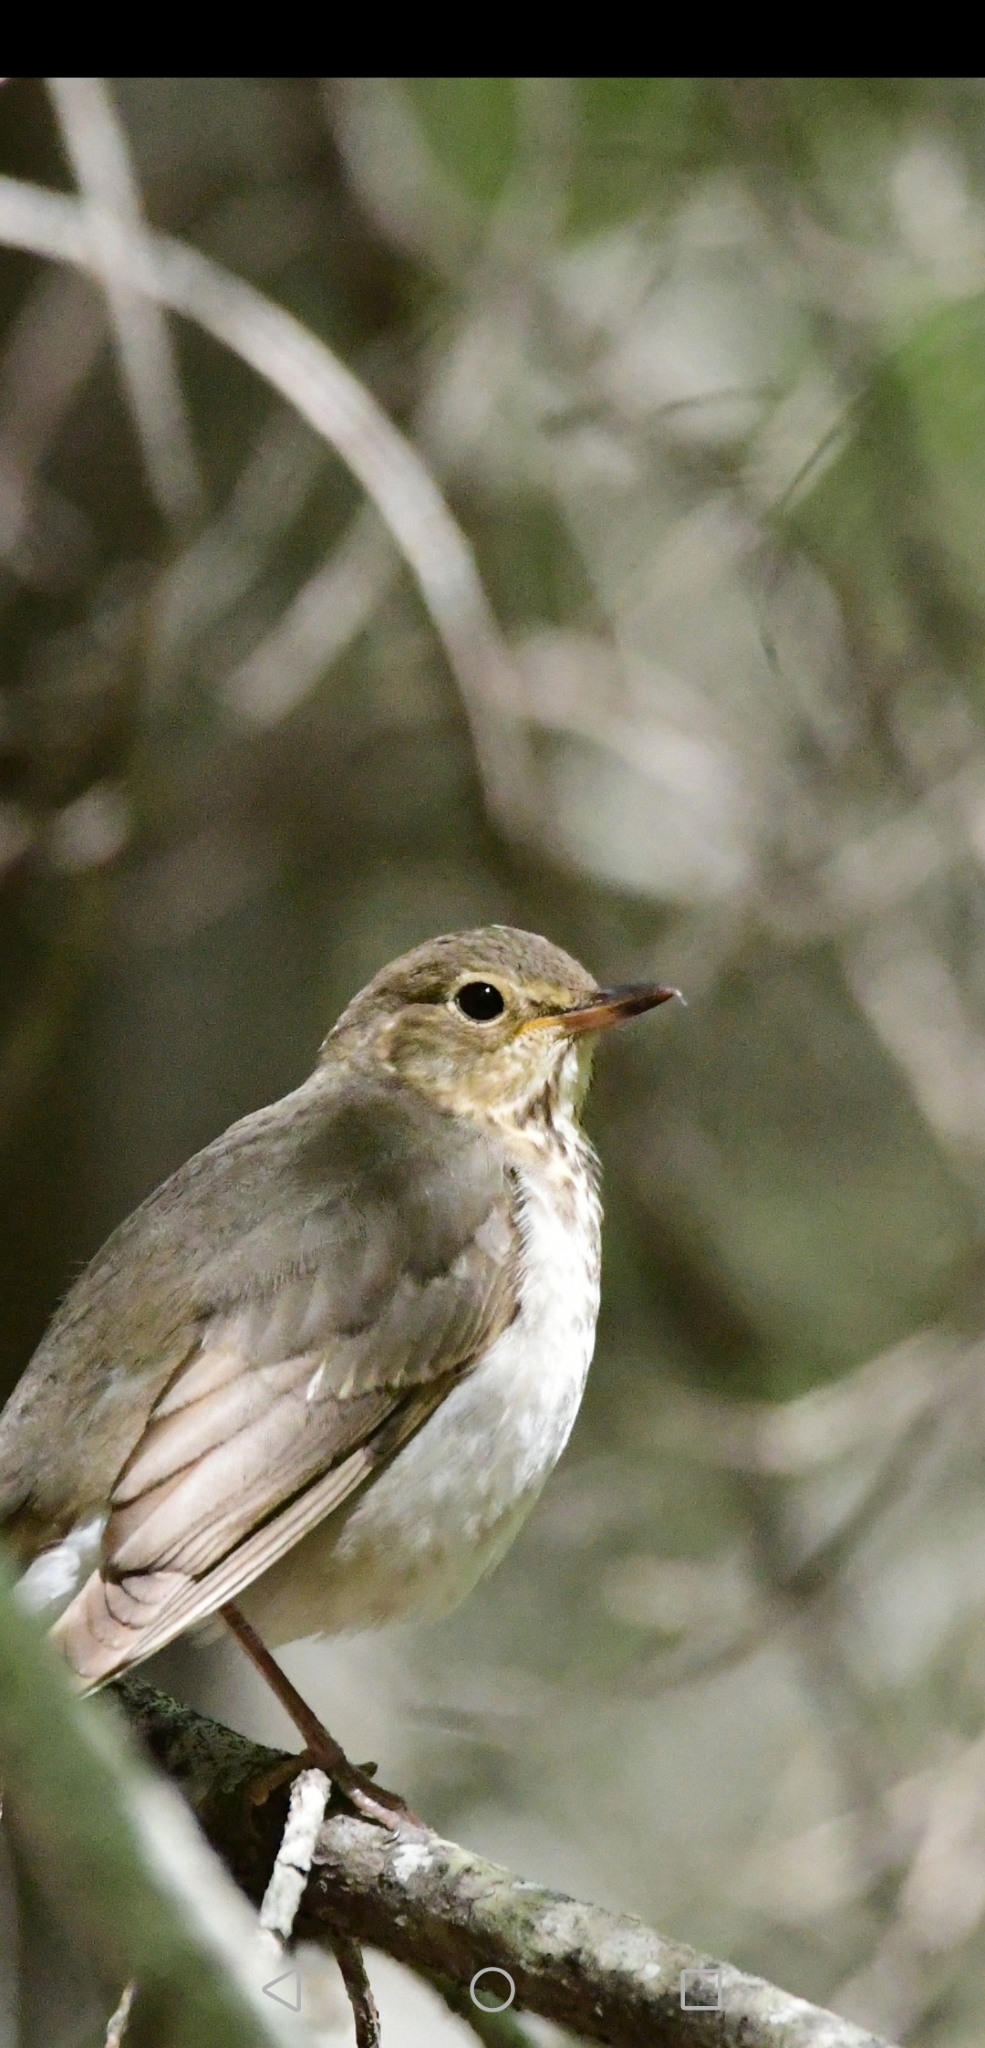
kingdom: Animalia
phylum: Chordata
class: Aves
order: Passeriformes
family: Turdidae
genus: Catharus
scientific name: Catharus ustulatus
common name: Swainson's thrush
